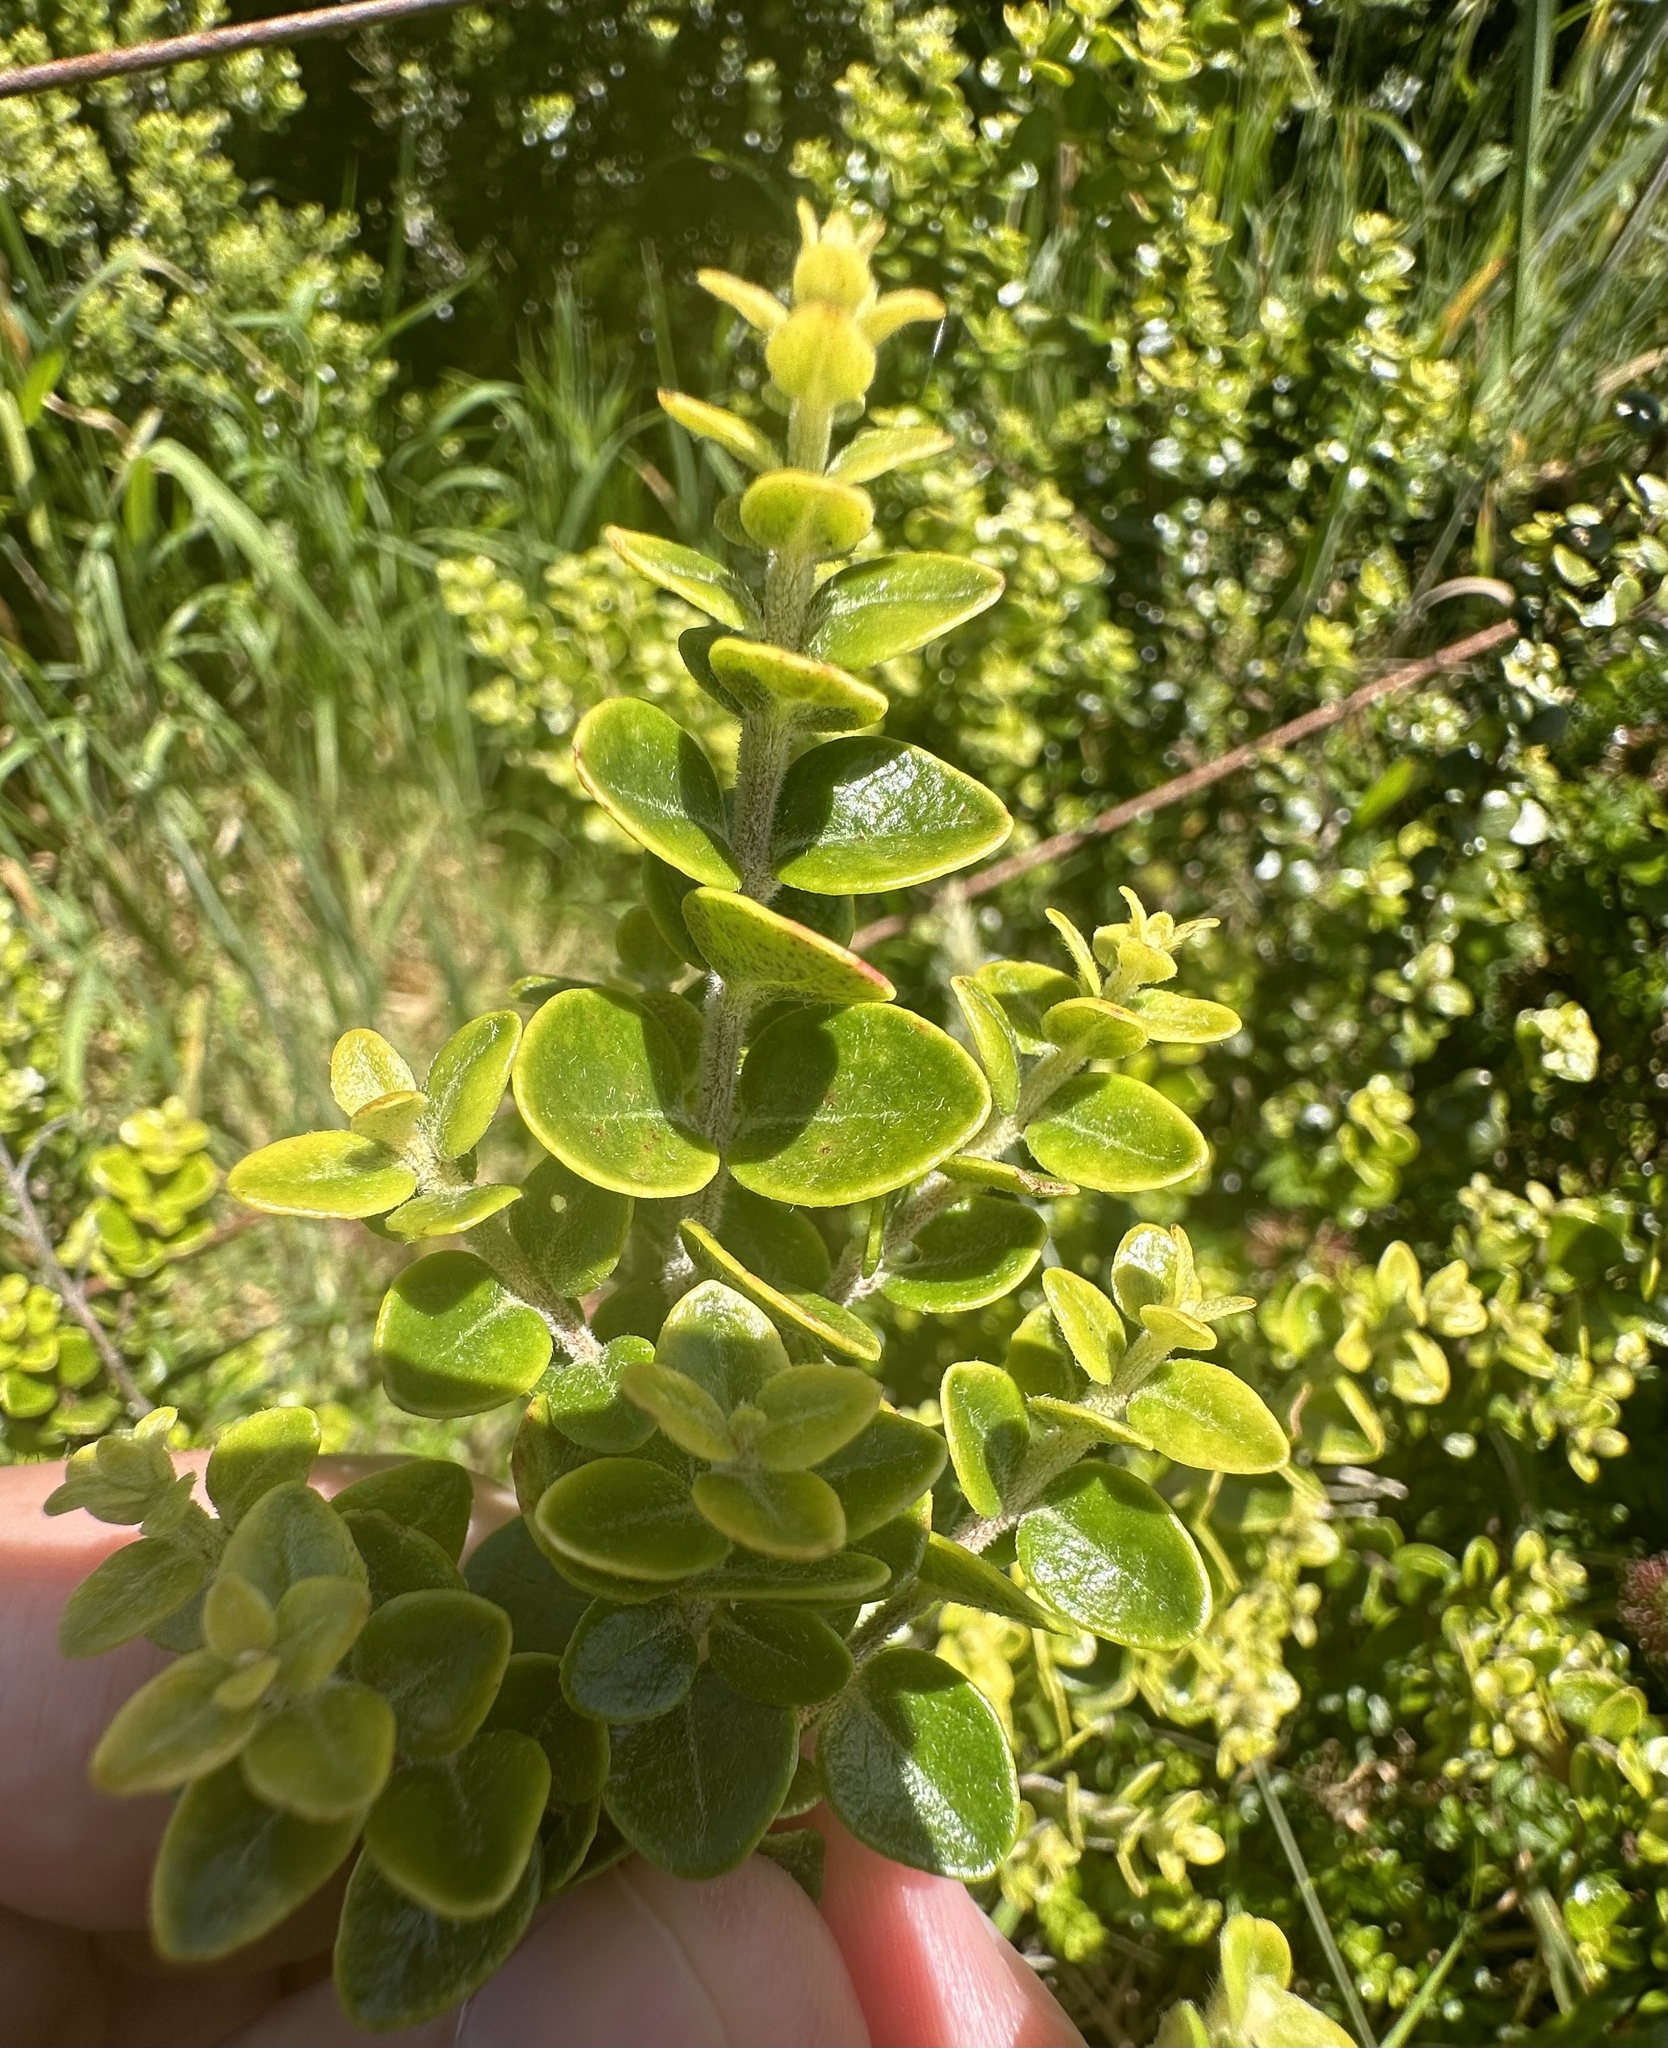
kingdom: Plantae
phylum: Tracheophyta
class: Magnoliopsida
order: Myrtales
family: Myrtaceae
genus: Metrosideros
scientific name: Metrosideros perforata
